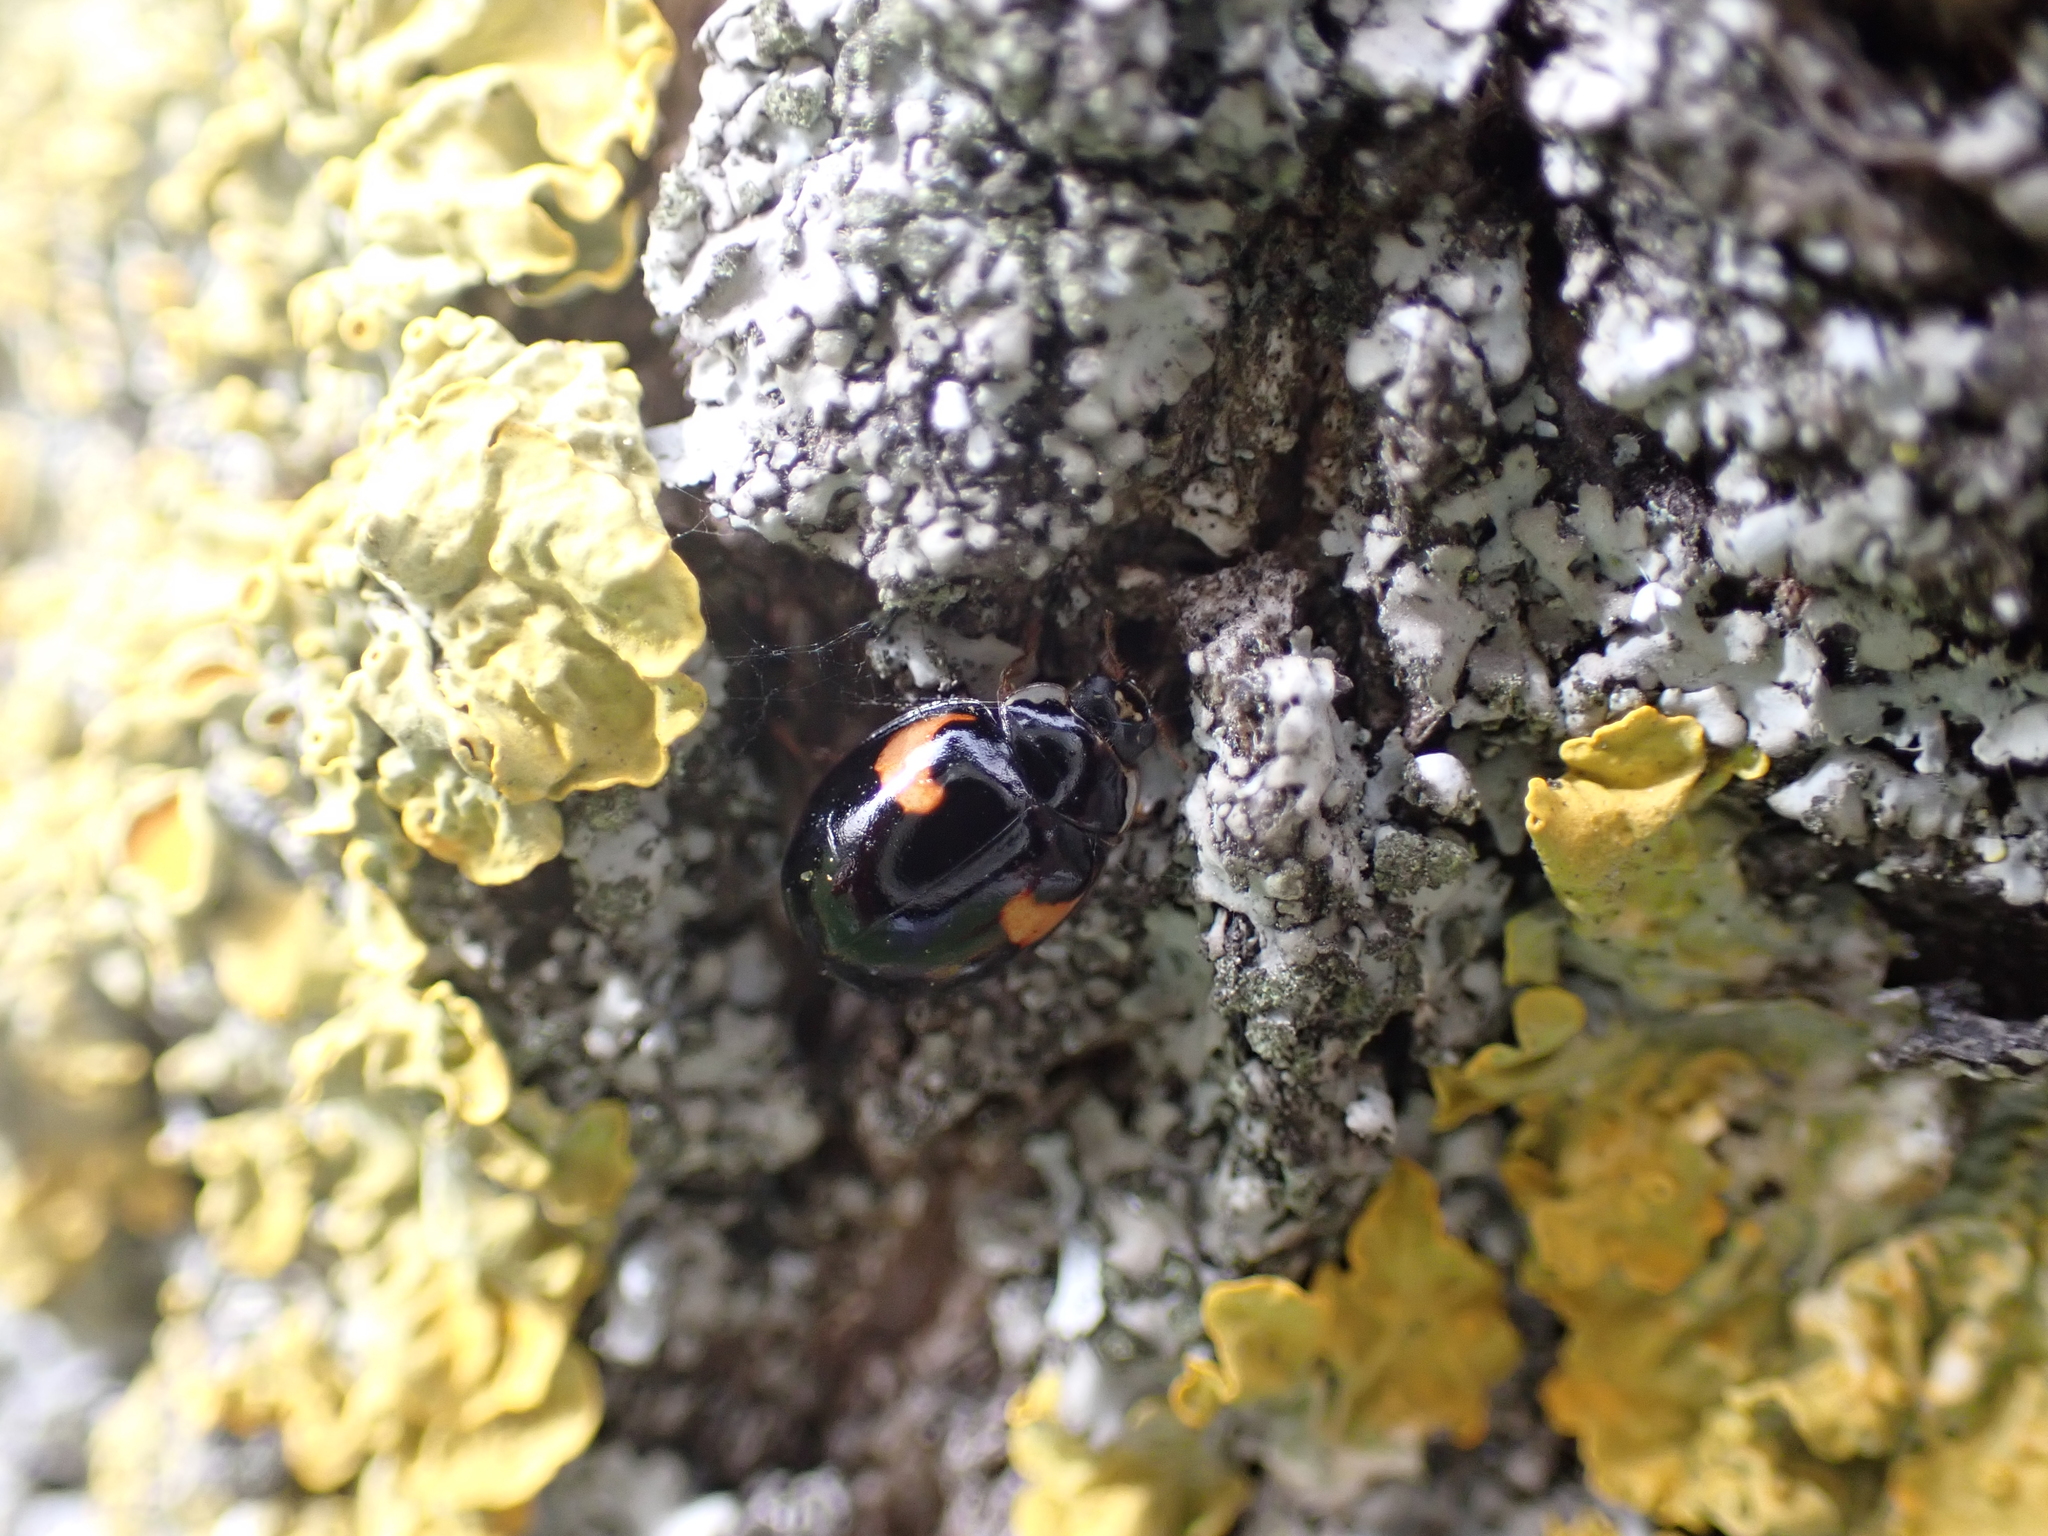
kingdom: Animalia
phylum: Arthropoda
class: Insecta
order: Coleoptera
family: Coccinellidae
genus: Adalia
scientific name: Adalia decempunctata
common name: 10-spot ladybird
